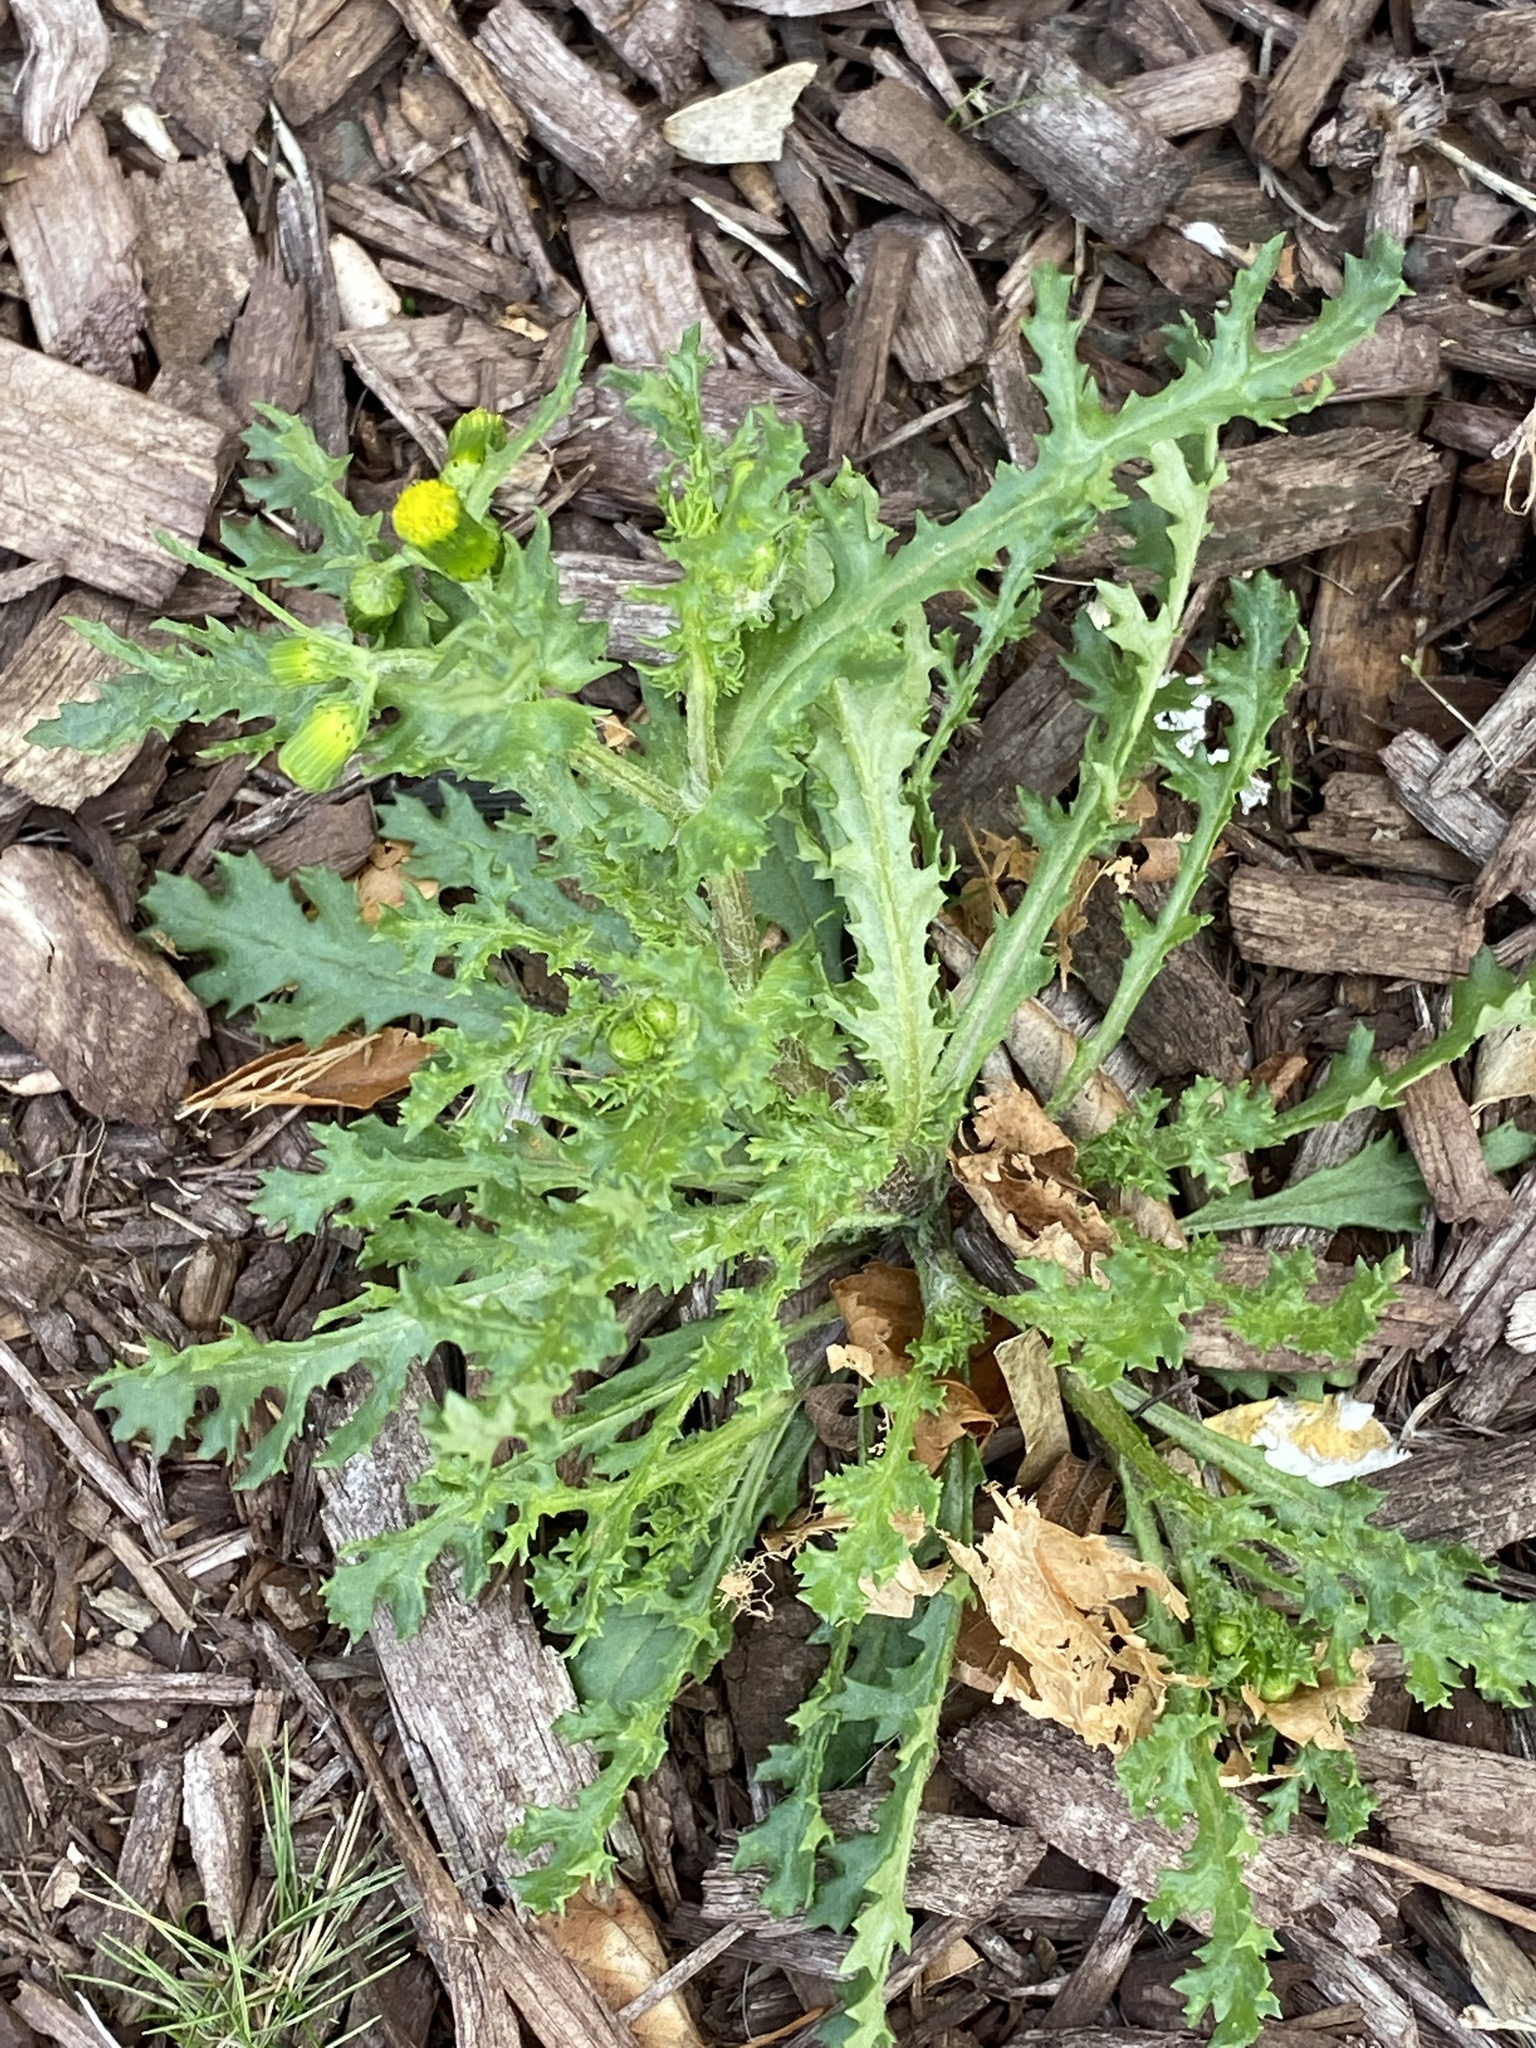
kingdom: Plantae
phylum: Tracheophyta
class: Magnoliopsida
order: Asterales
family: Asteraceae
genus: Senecio
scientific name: Senecio vulgaris
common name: Old-man-in-the-spring
